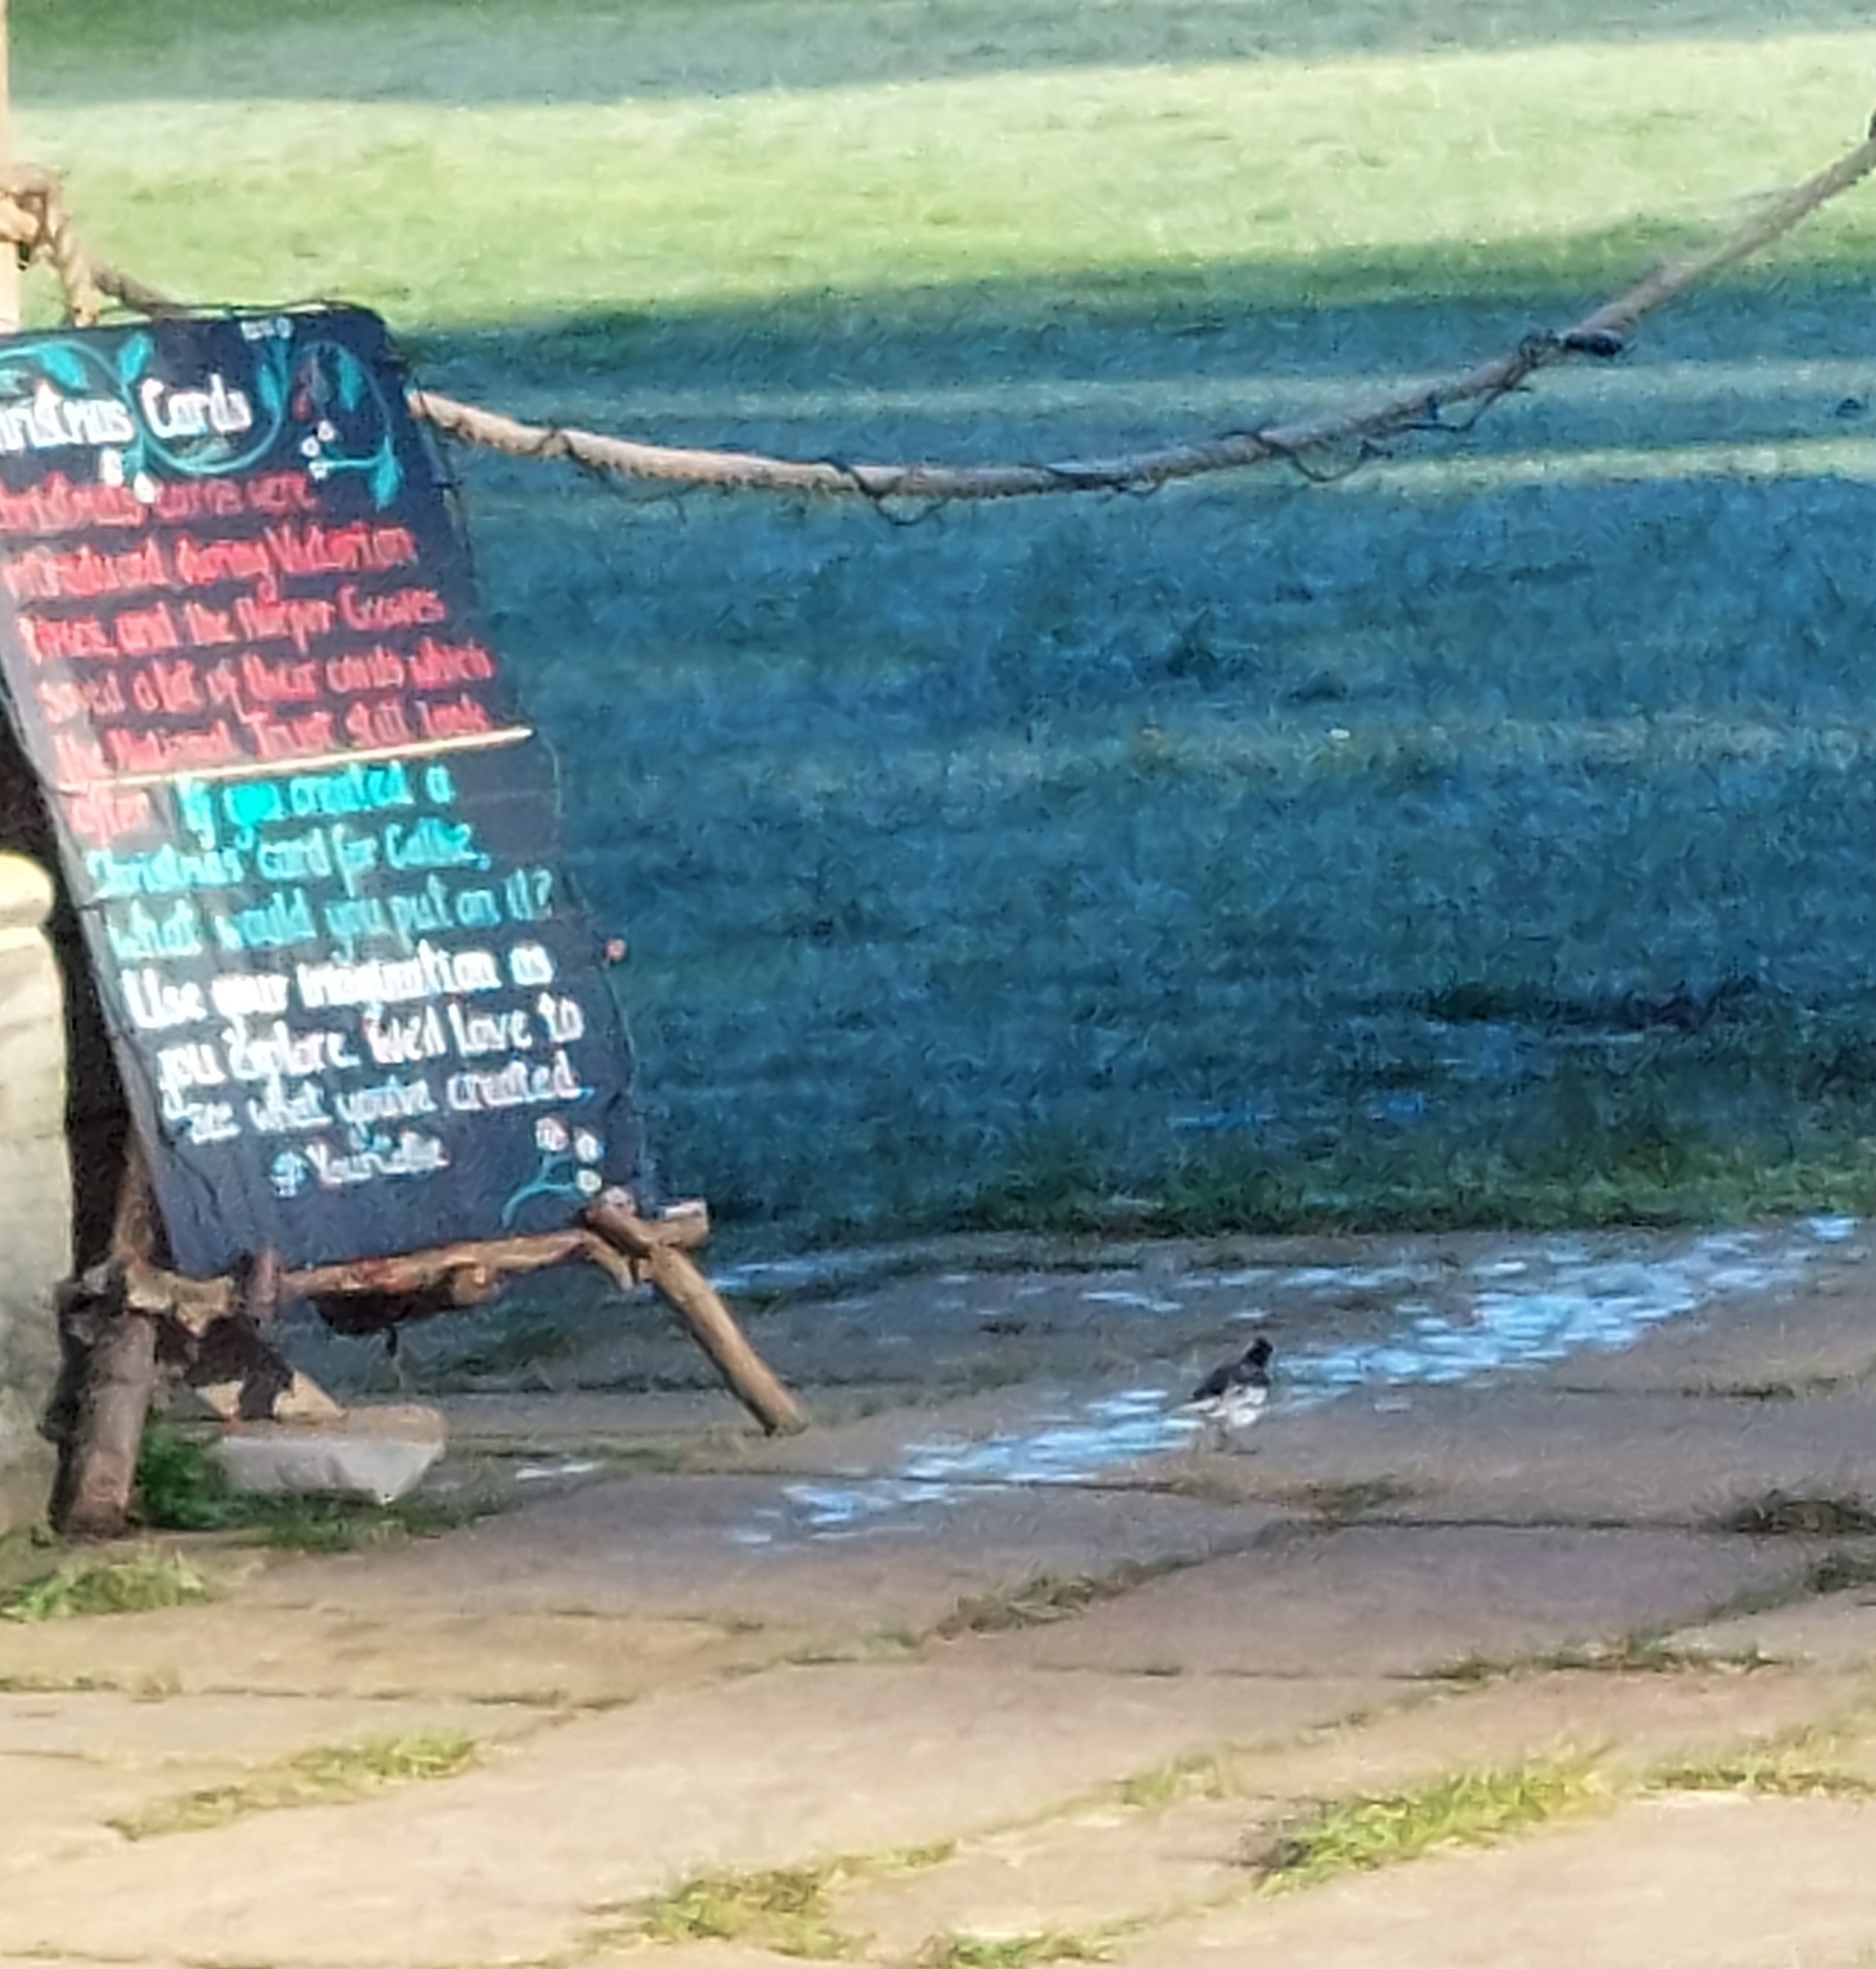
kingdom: Animalia
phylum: Chordata
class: Aves
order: Passeriformes
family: Motacillidae
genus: Motacilla
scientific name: Motacilla alba
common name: White wagtail
